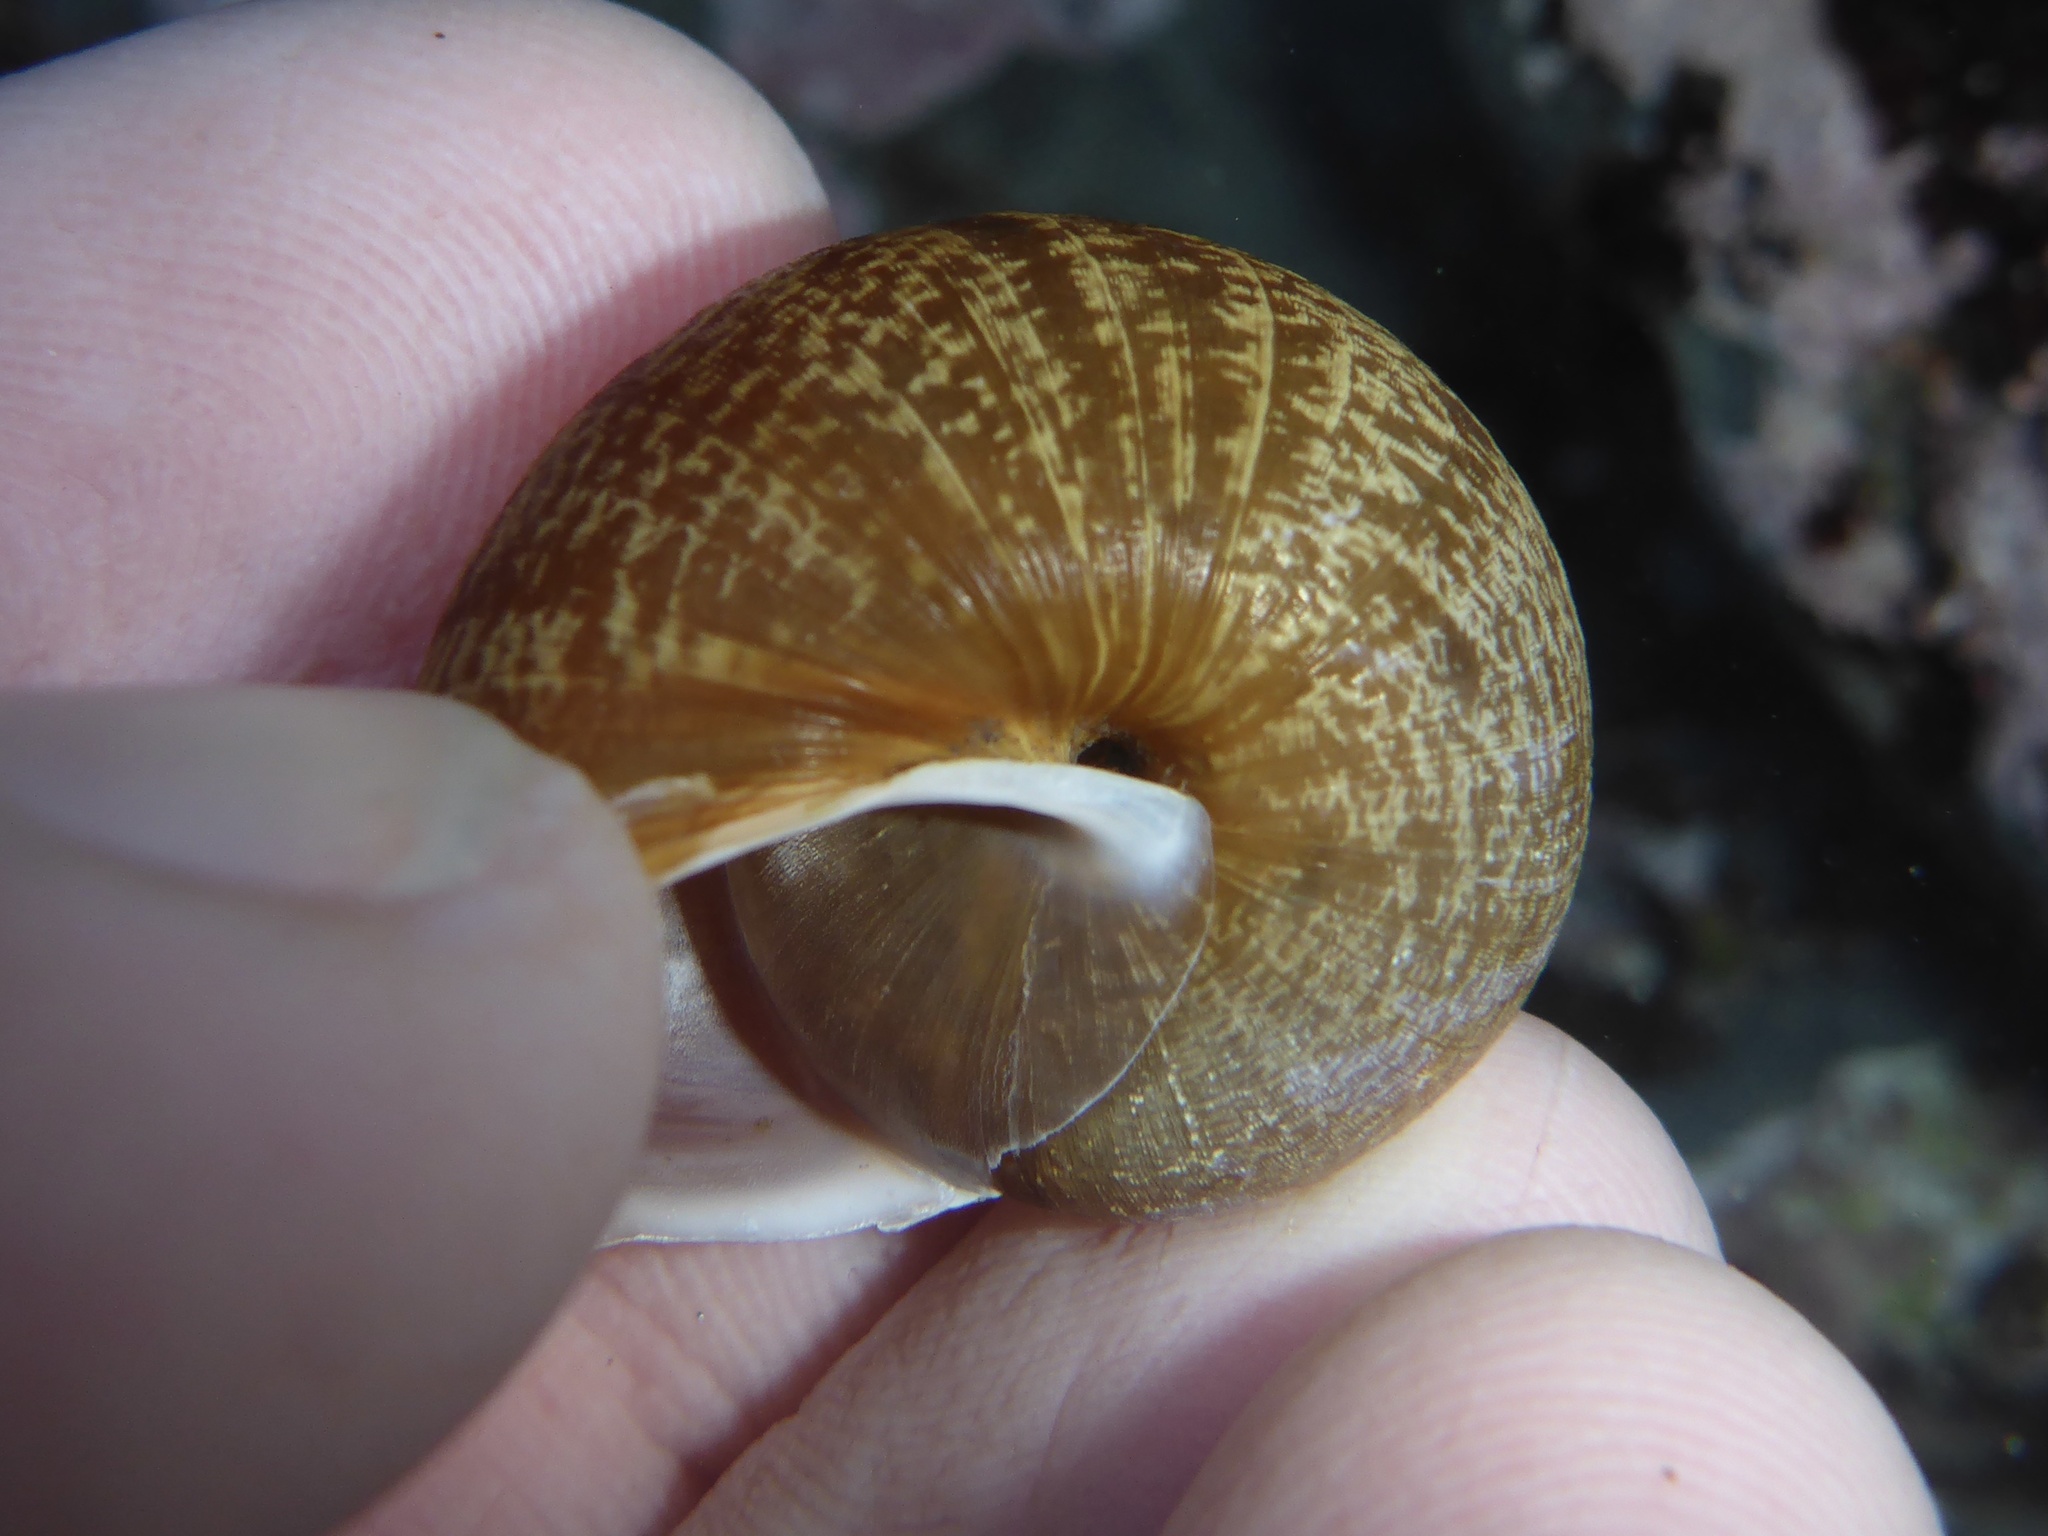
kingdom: Animalia
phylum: Mollusca
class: Gastropoda
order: Stylommatophora
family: Xanthonychidae
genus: Helminthoglypta
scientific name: Helminthoglypta nickliniana
